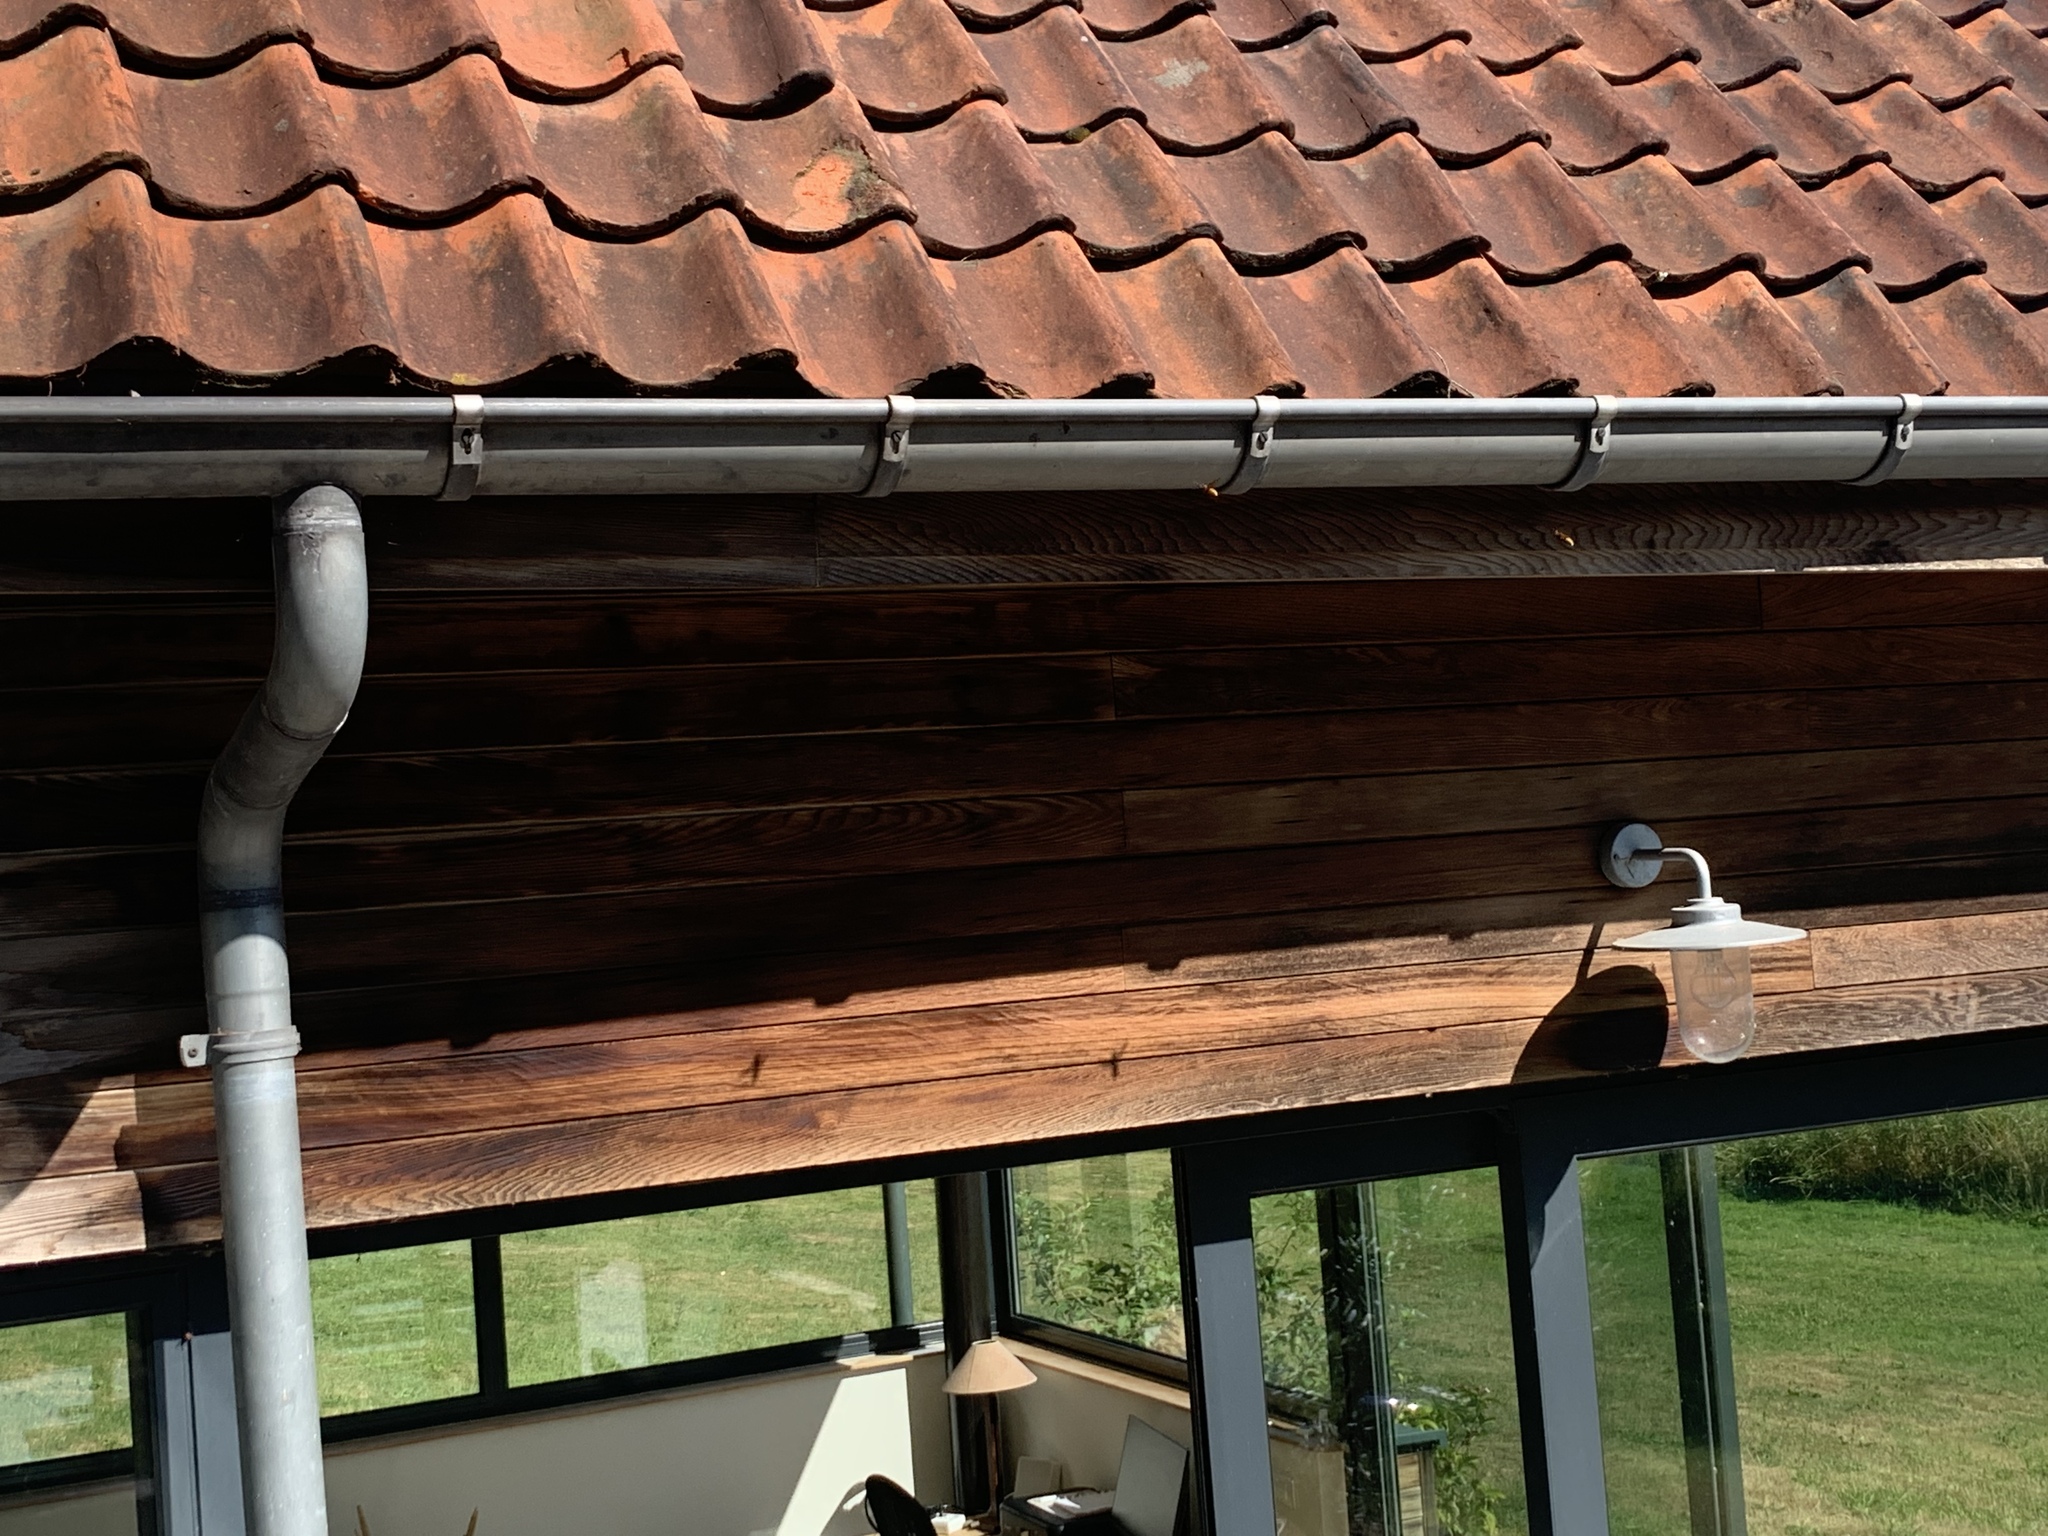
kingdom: Animalia
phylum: Arthropoda
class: Insecta
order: Hymenoptera
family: Vespidae
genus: Vespa
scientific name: Vespa crabro
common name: Hornet
